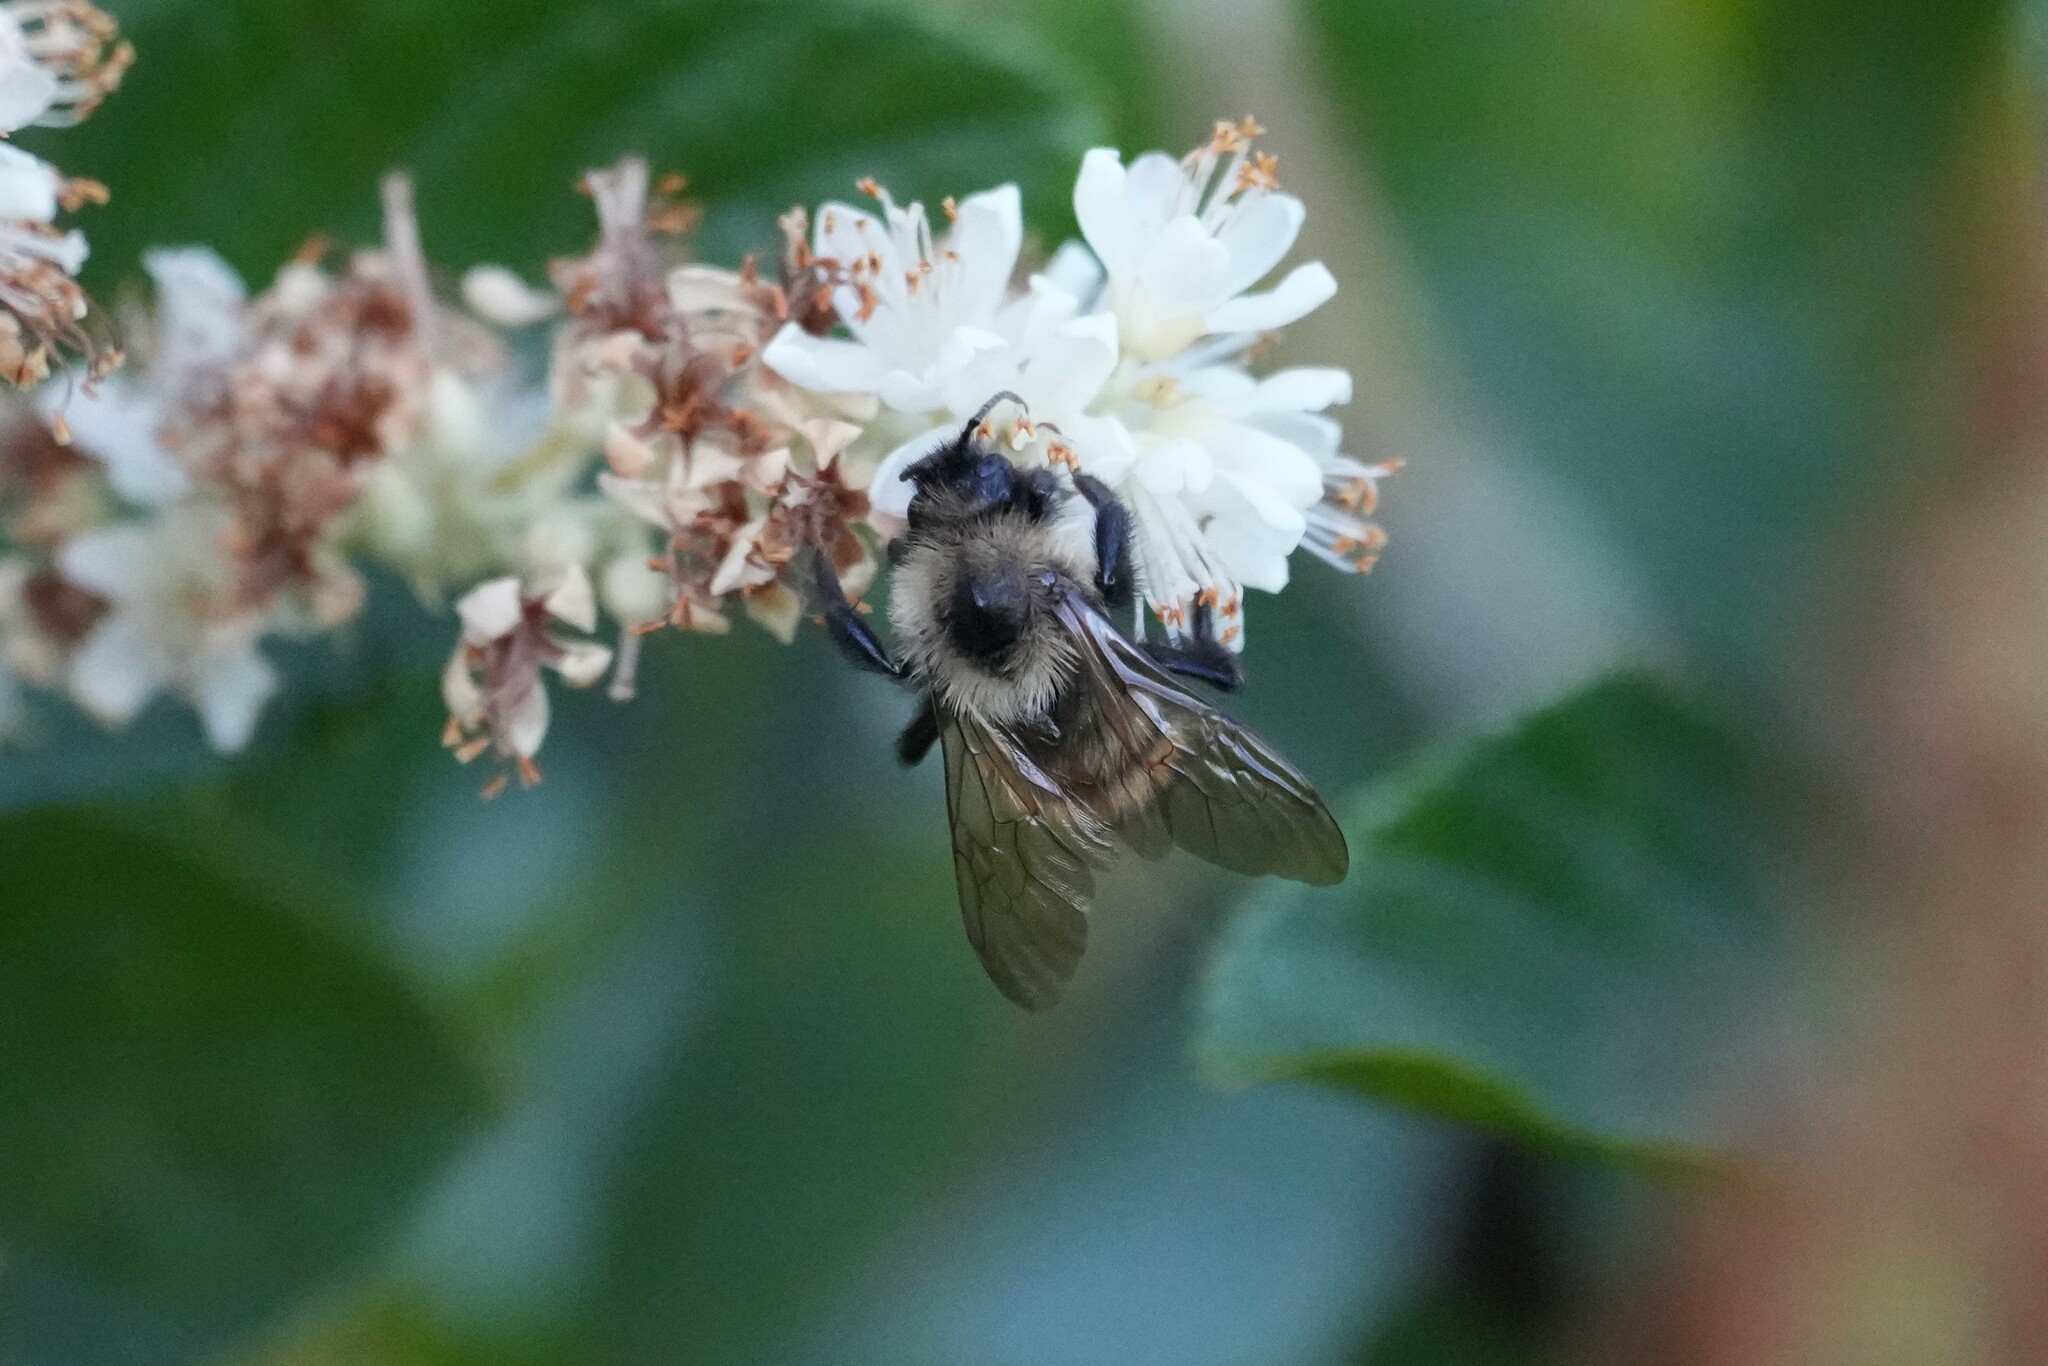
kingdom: Animalia
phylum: Arthropoda
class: Insecta
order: Hymenoptera
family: Apidae
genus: Bombus
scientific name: Bombus citrinus
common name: Lemon cuckoo bumble bee
